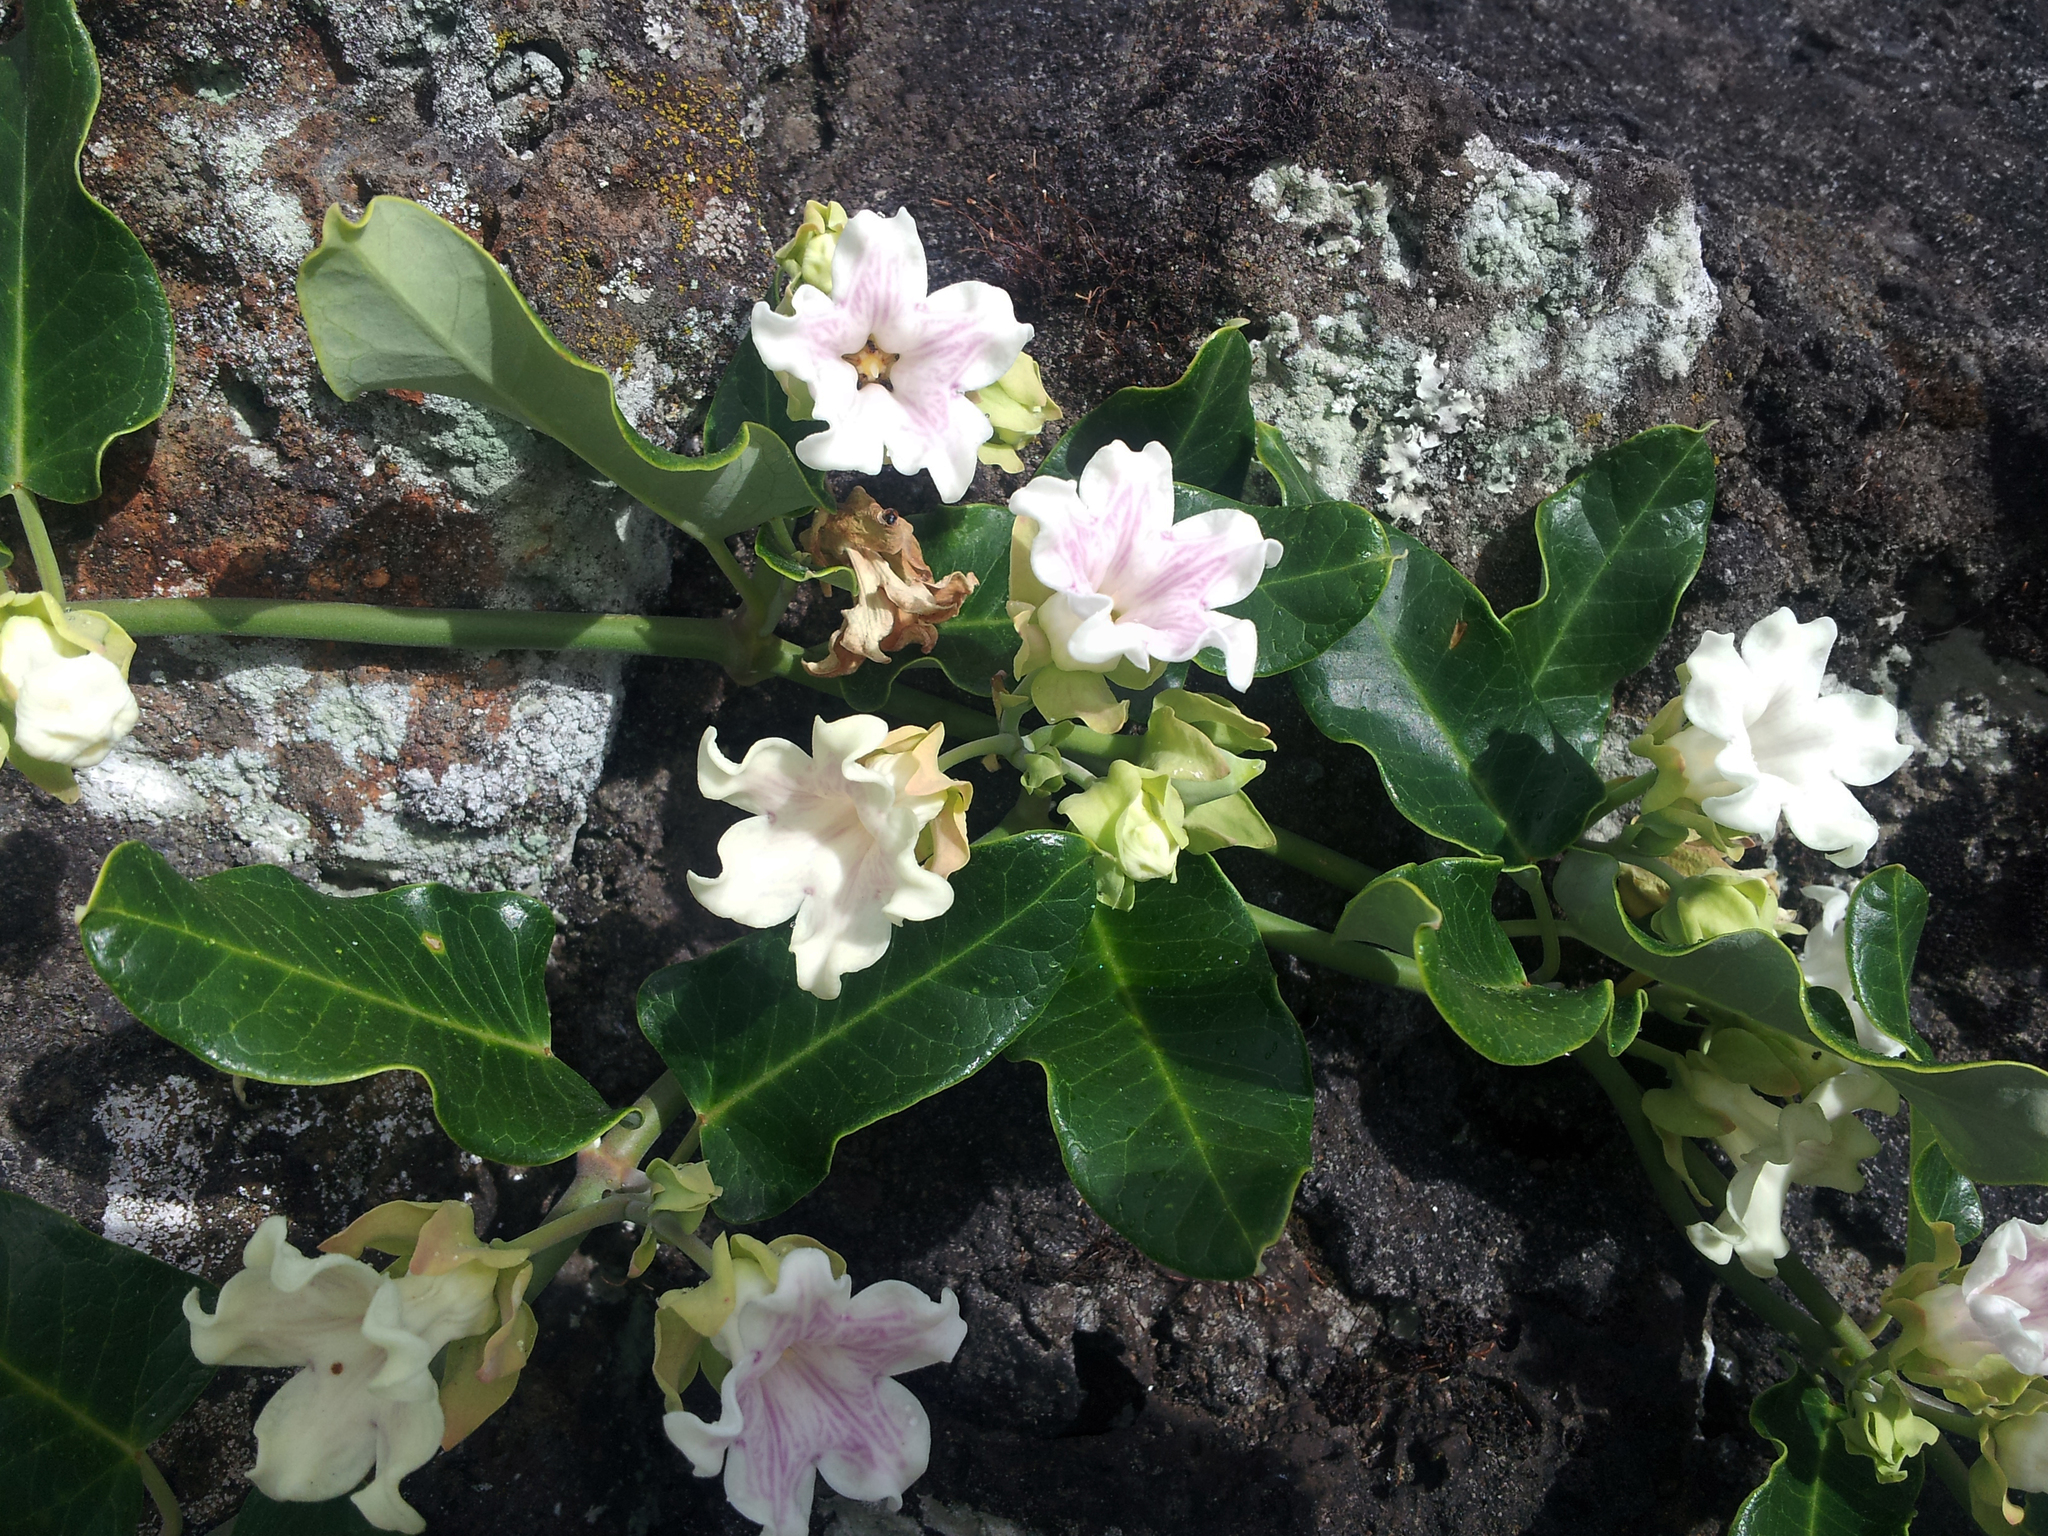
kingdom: Plantae
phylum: Tracheophyta
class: Magnoliopsida
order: Gentianales
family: Apocynaceae
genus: Araujia
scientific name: Araujia sericifera
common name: White bladderflower
